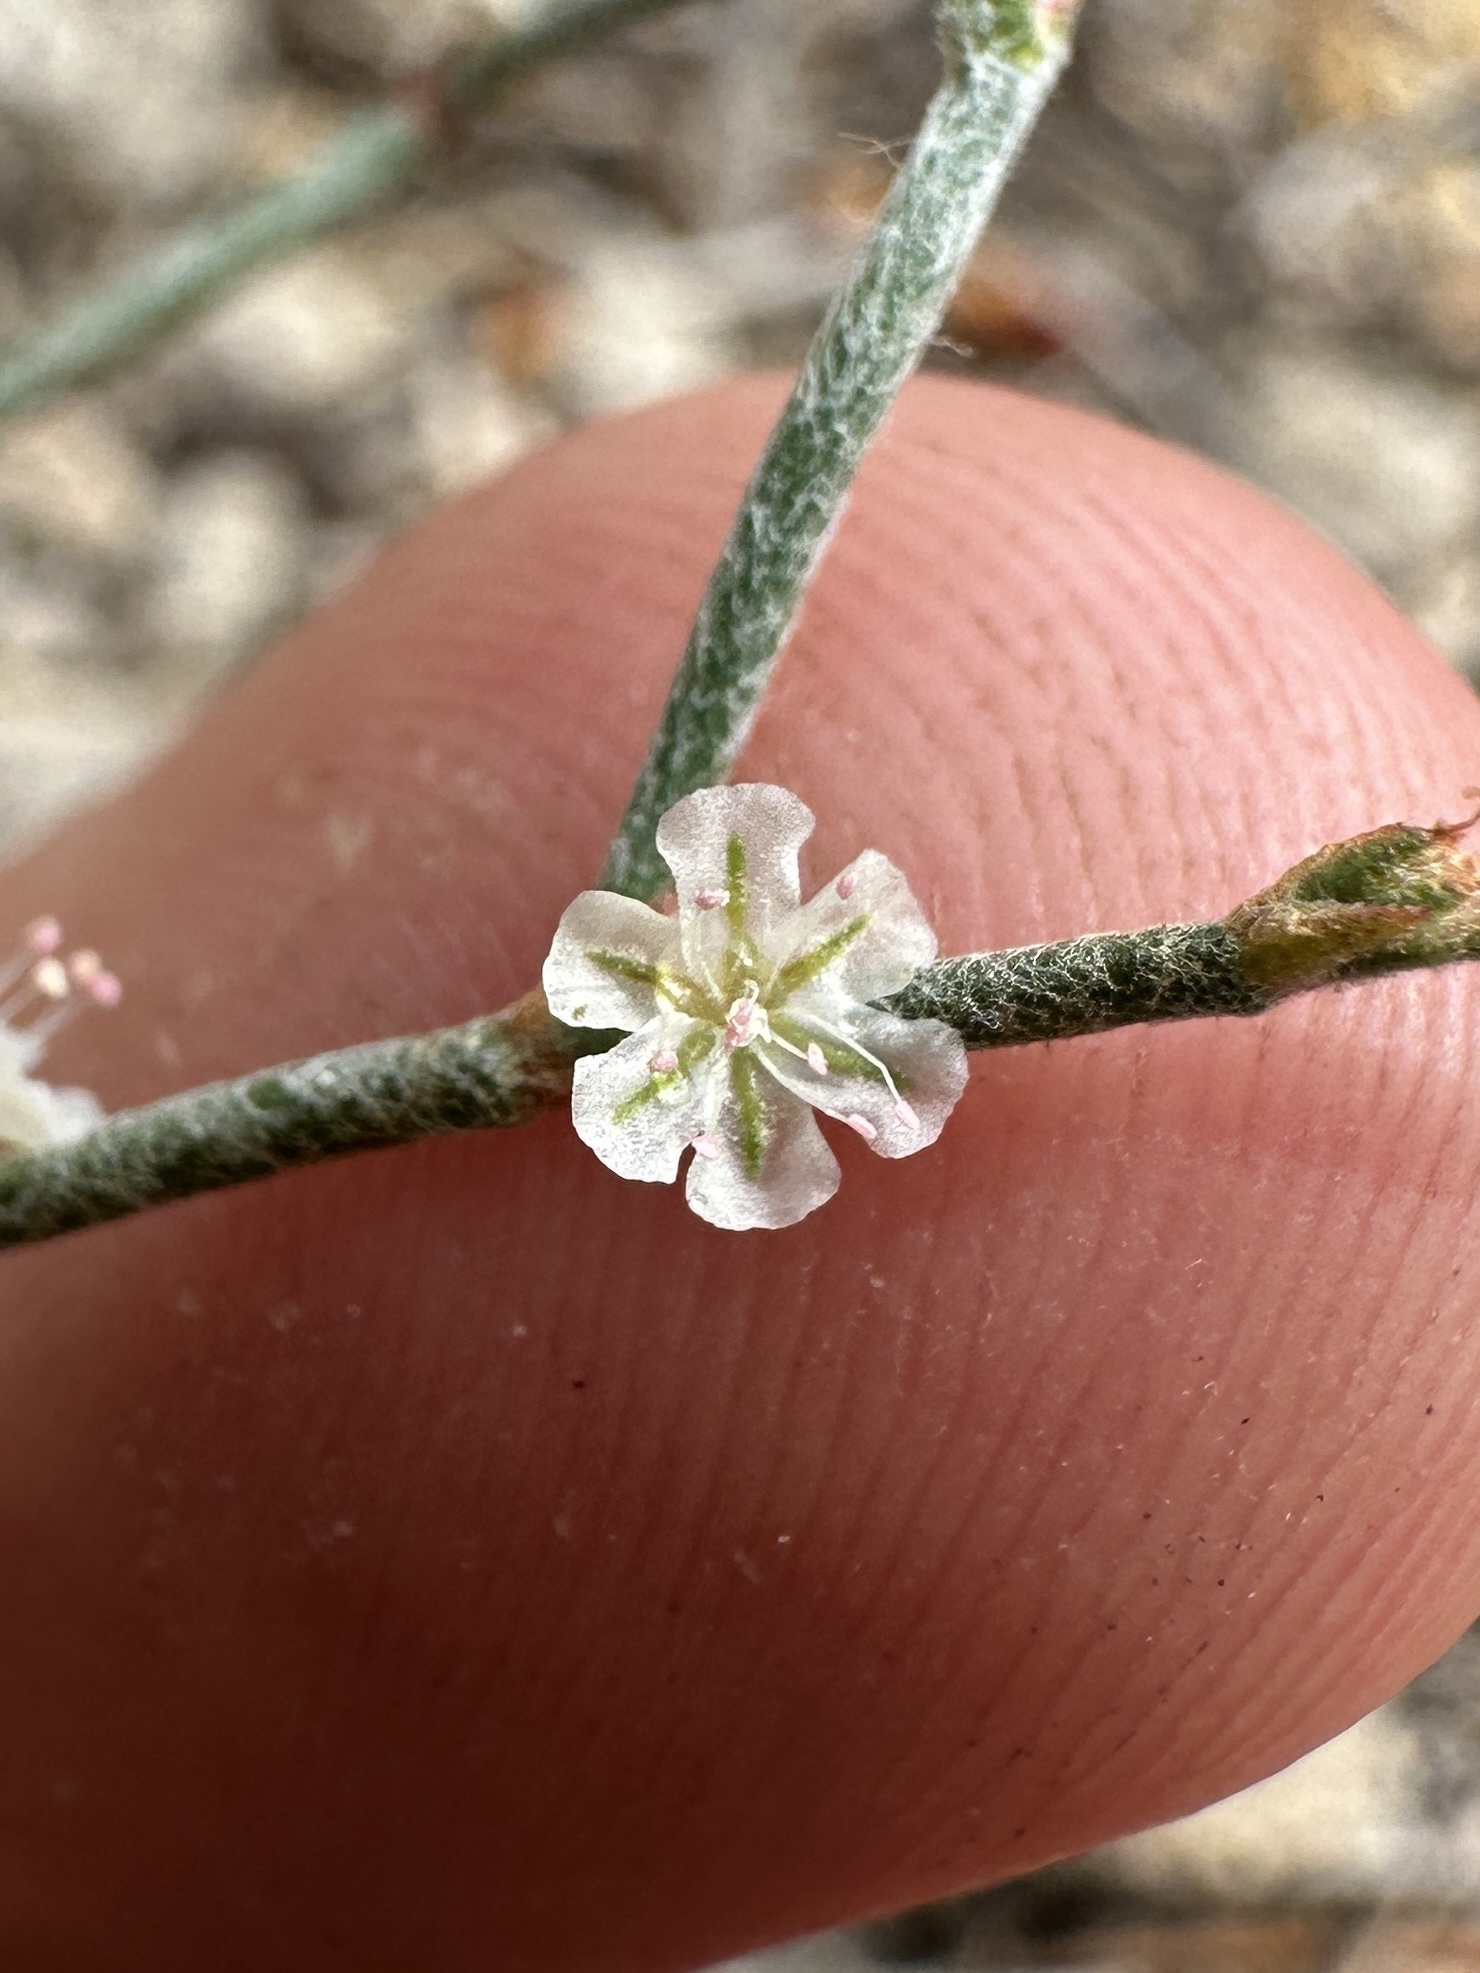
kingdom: Plantae
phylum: Tracheophyta
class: Magnoliopsida
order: Caryophyllales
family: Polygonaceae
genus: Eriogonum
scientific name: Eriogonum palmerianum
